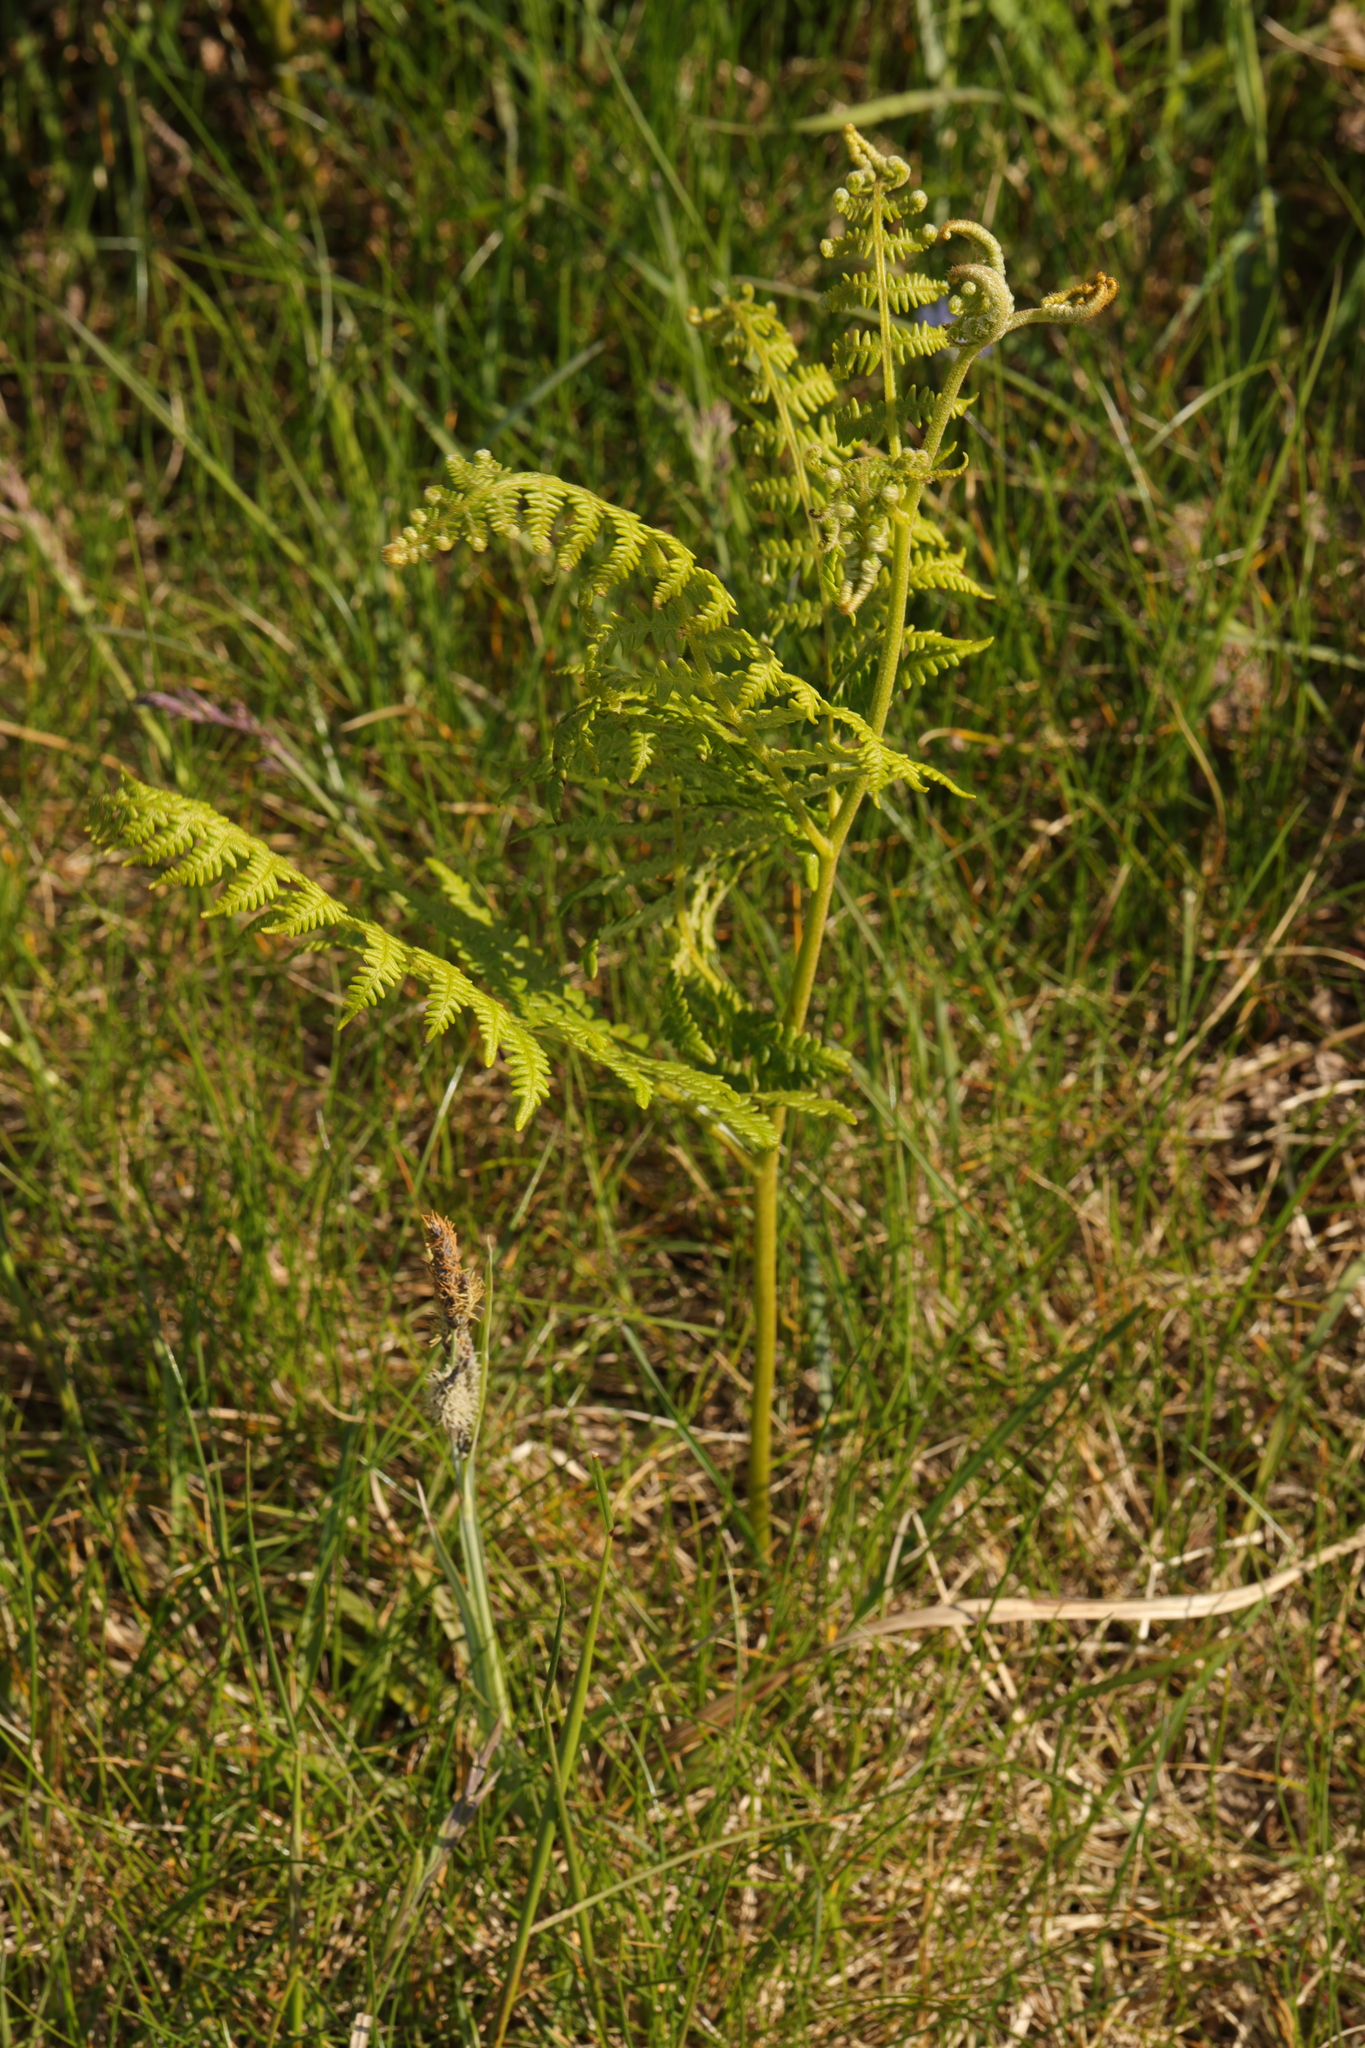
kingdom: Plantae
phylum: Tracheophyta
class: Polypodiopsida
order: Polypodiales
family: Dennstaedtiaceae
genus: Pteridium
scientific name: Pteridium aquilinum
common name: Bracken
